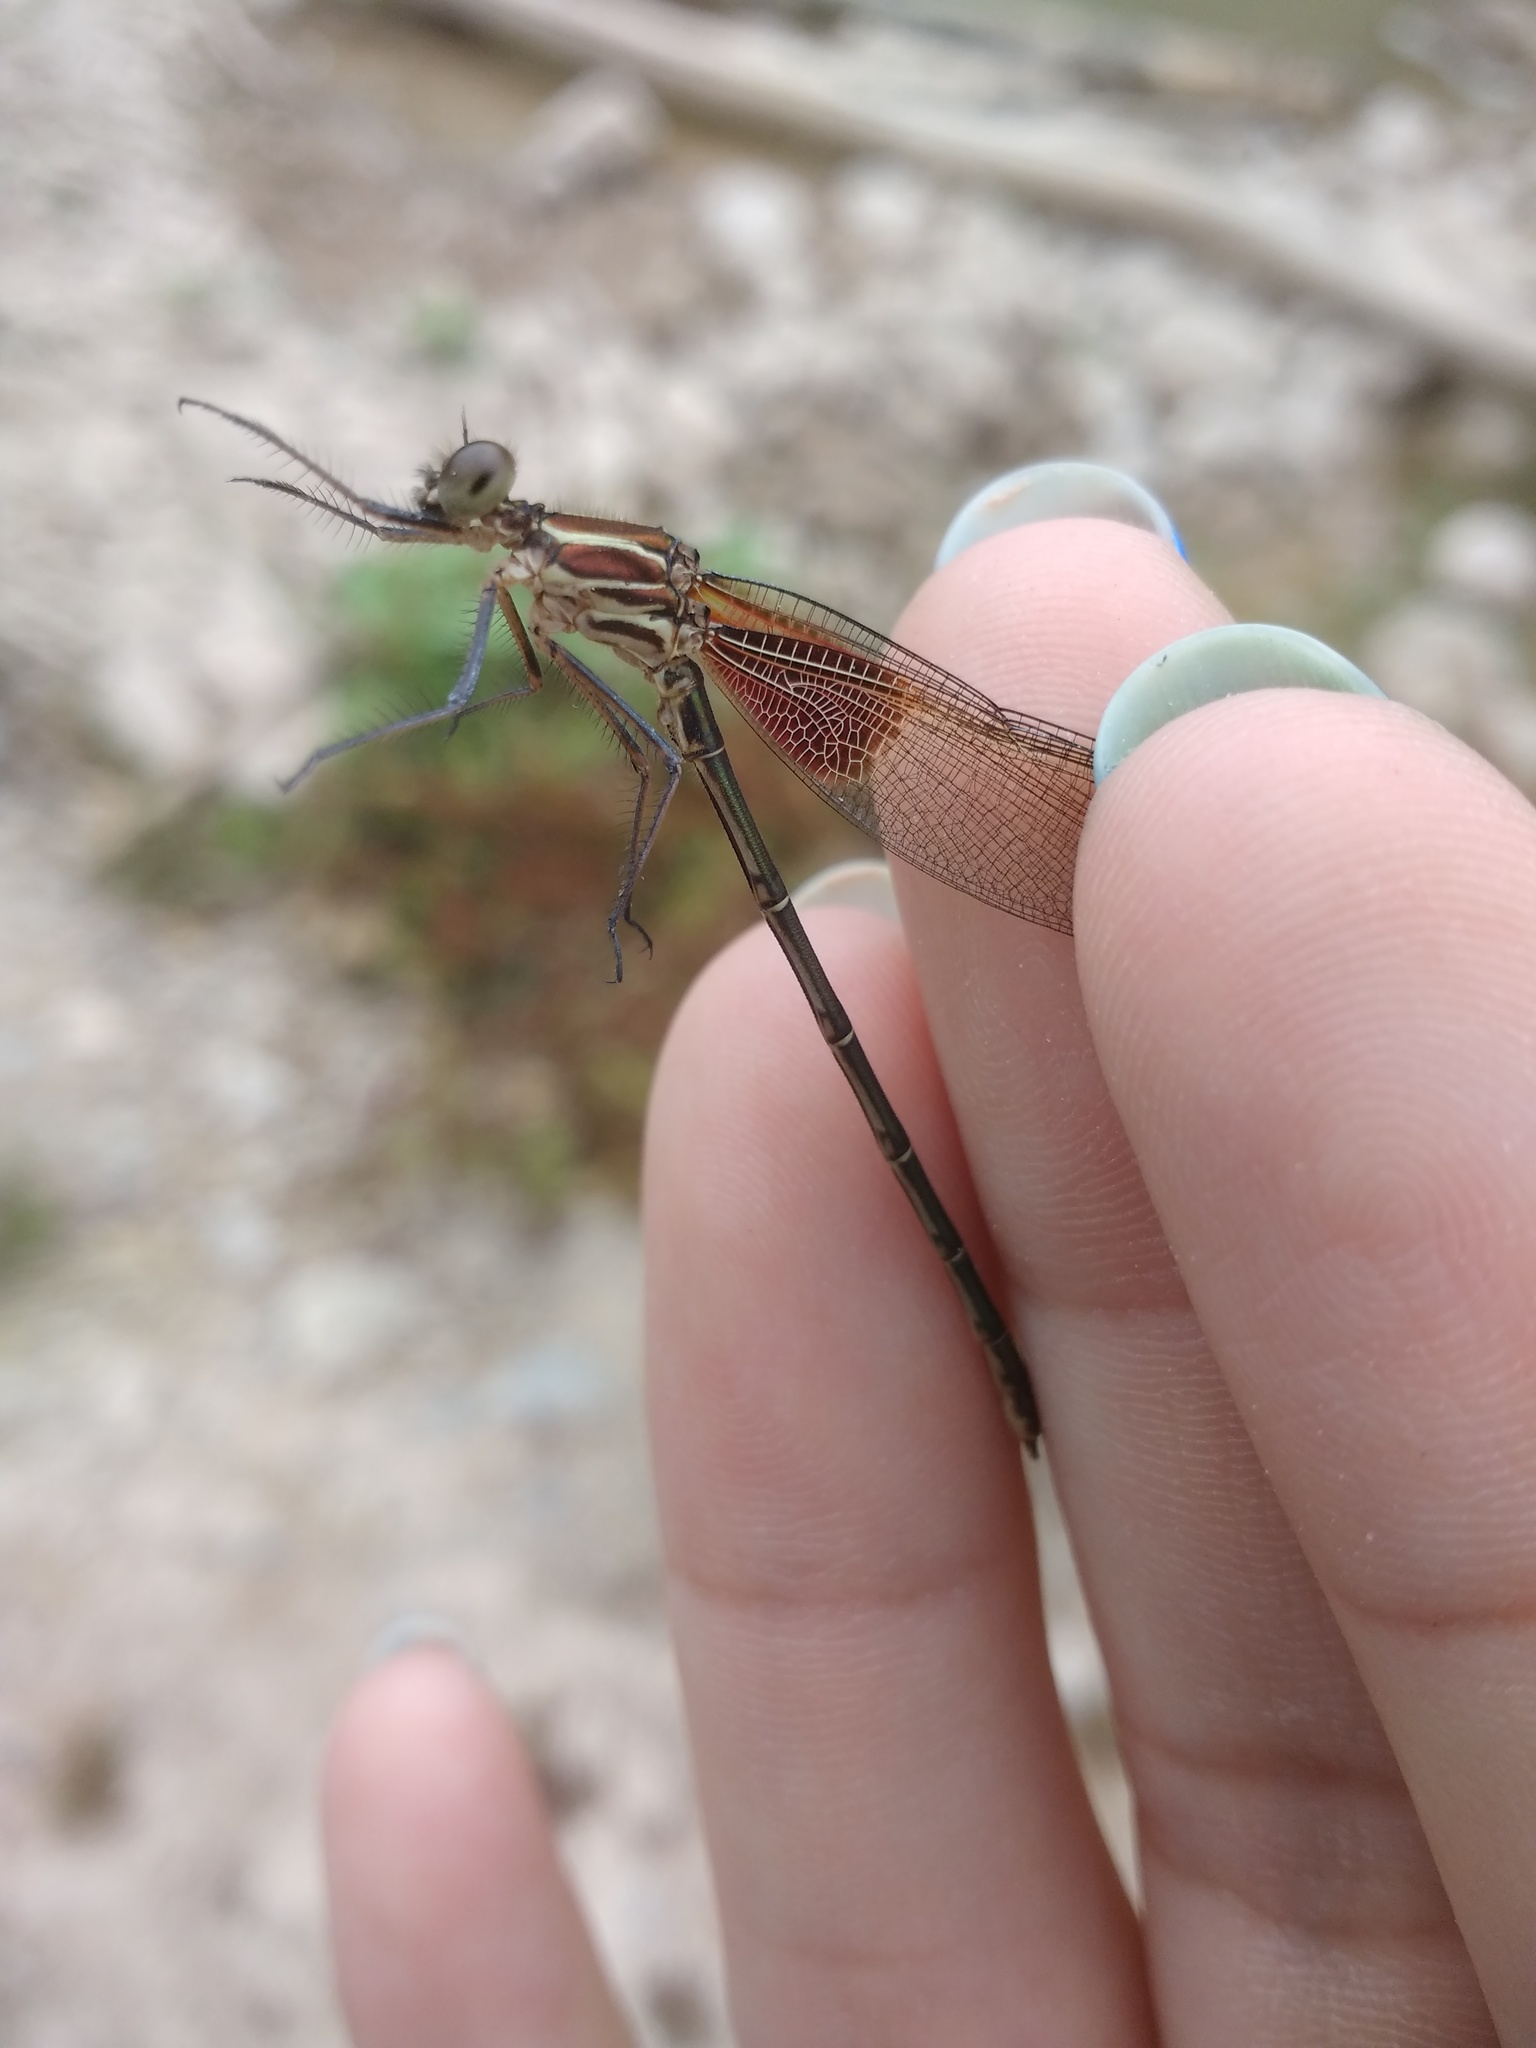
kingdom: Animalia
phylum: Arthropoda
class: Insecta
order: Odonata
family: Calopterygidae
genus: Hetaerina
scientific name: Hetaerina americana
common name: American rubyspot
